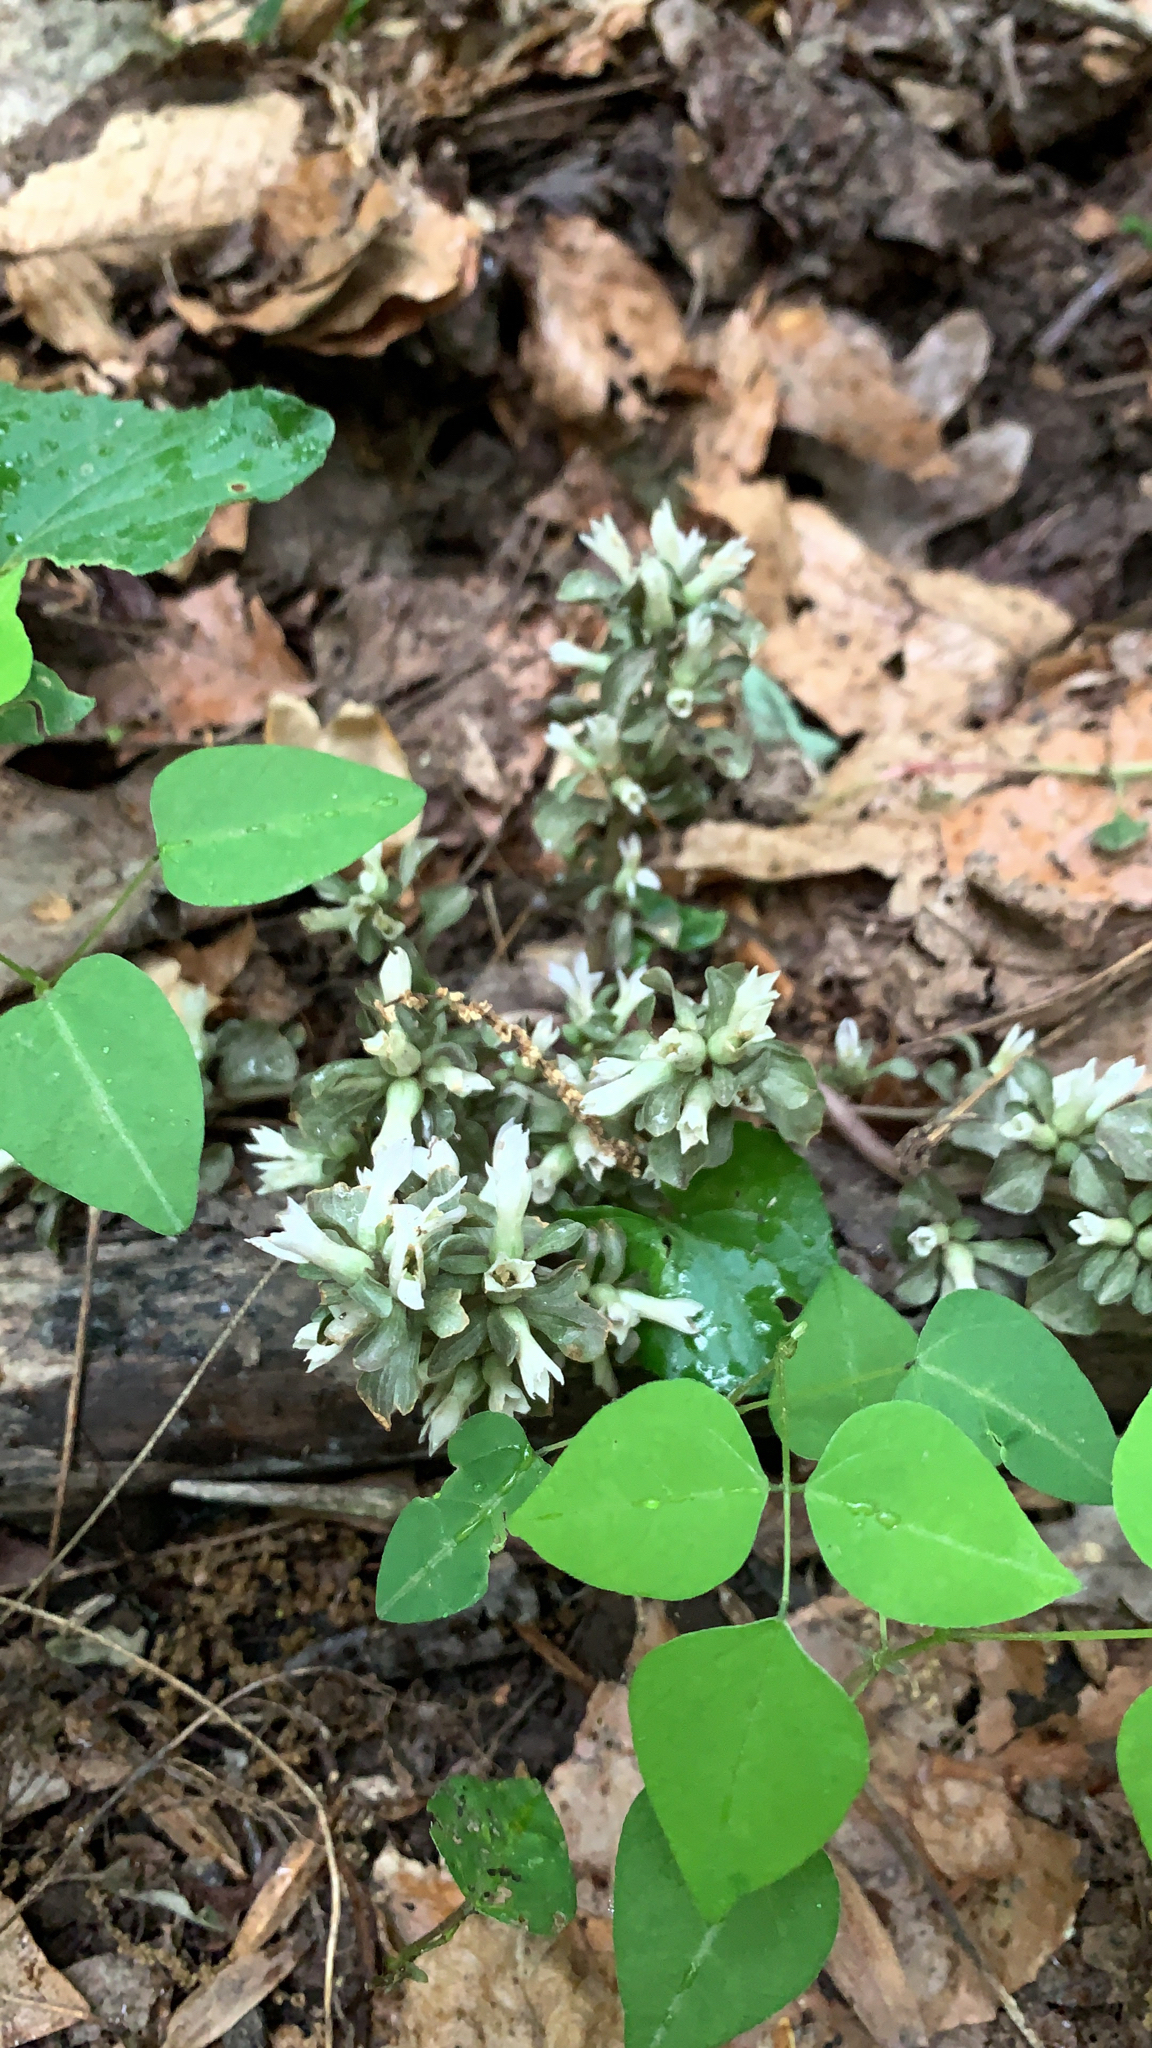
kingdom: Plantae
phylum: Tracheophyta
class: Magnoliopsida
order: Gentianales
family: Gentianaceae
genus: Obolaria
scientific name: Obolaria virginica
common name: Pennywort
